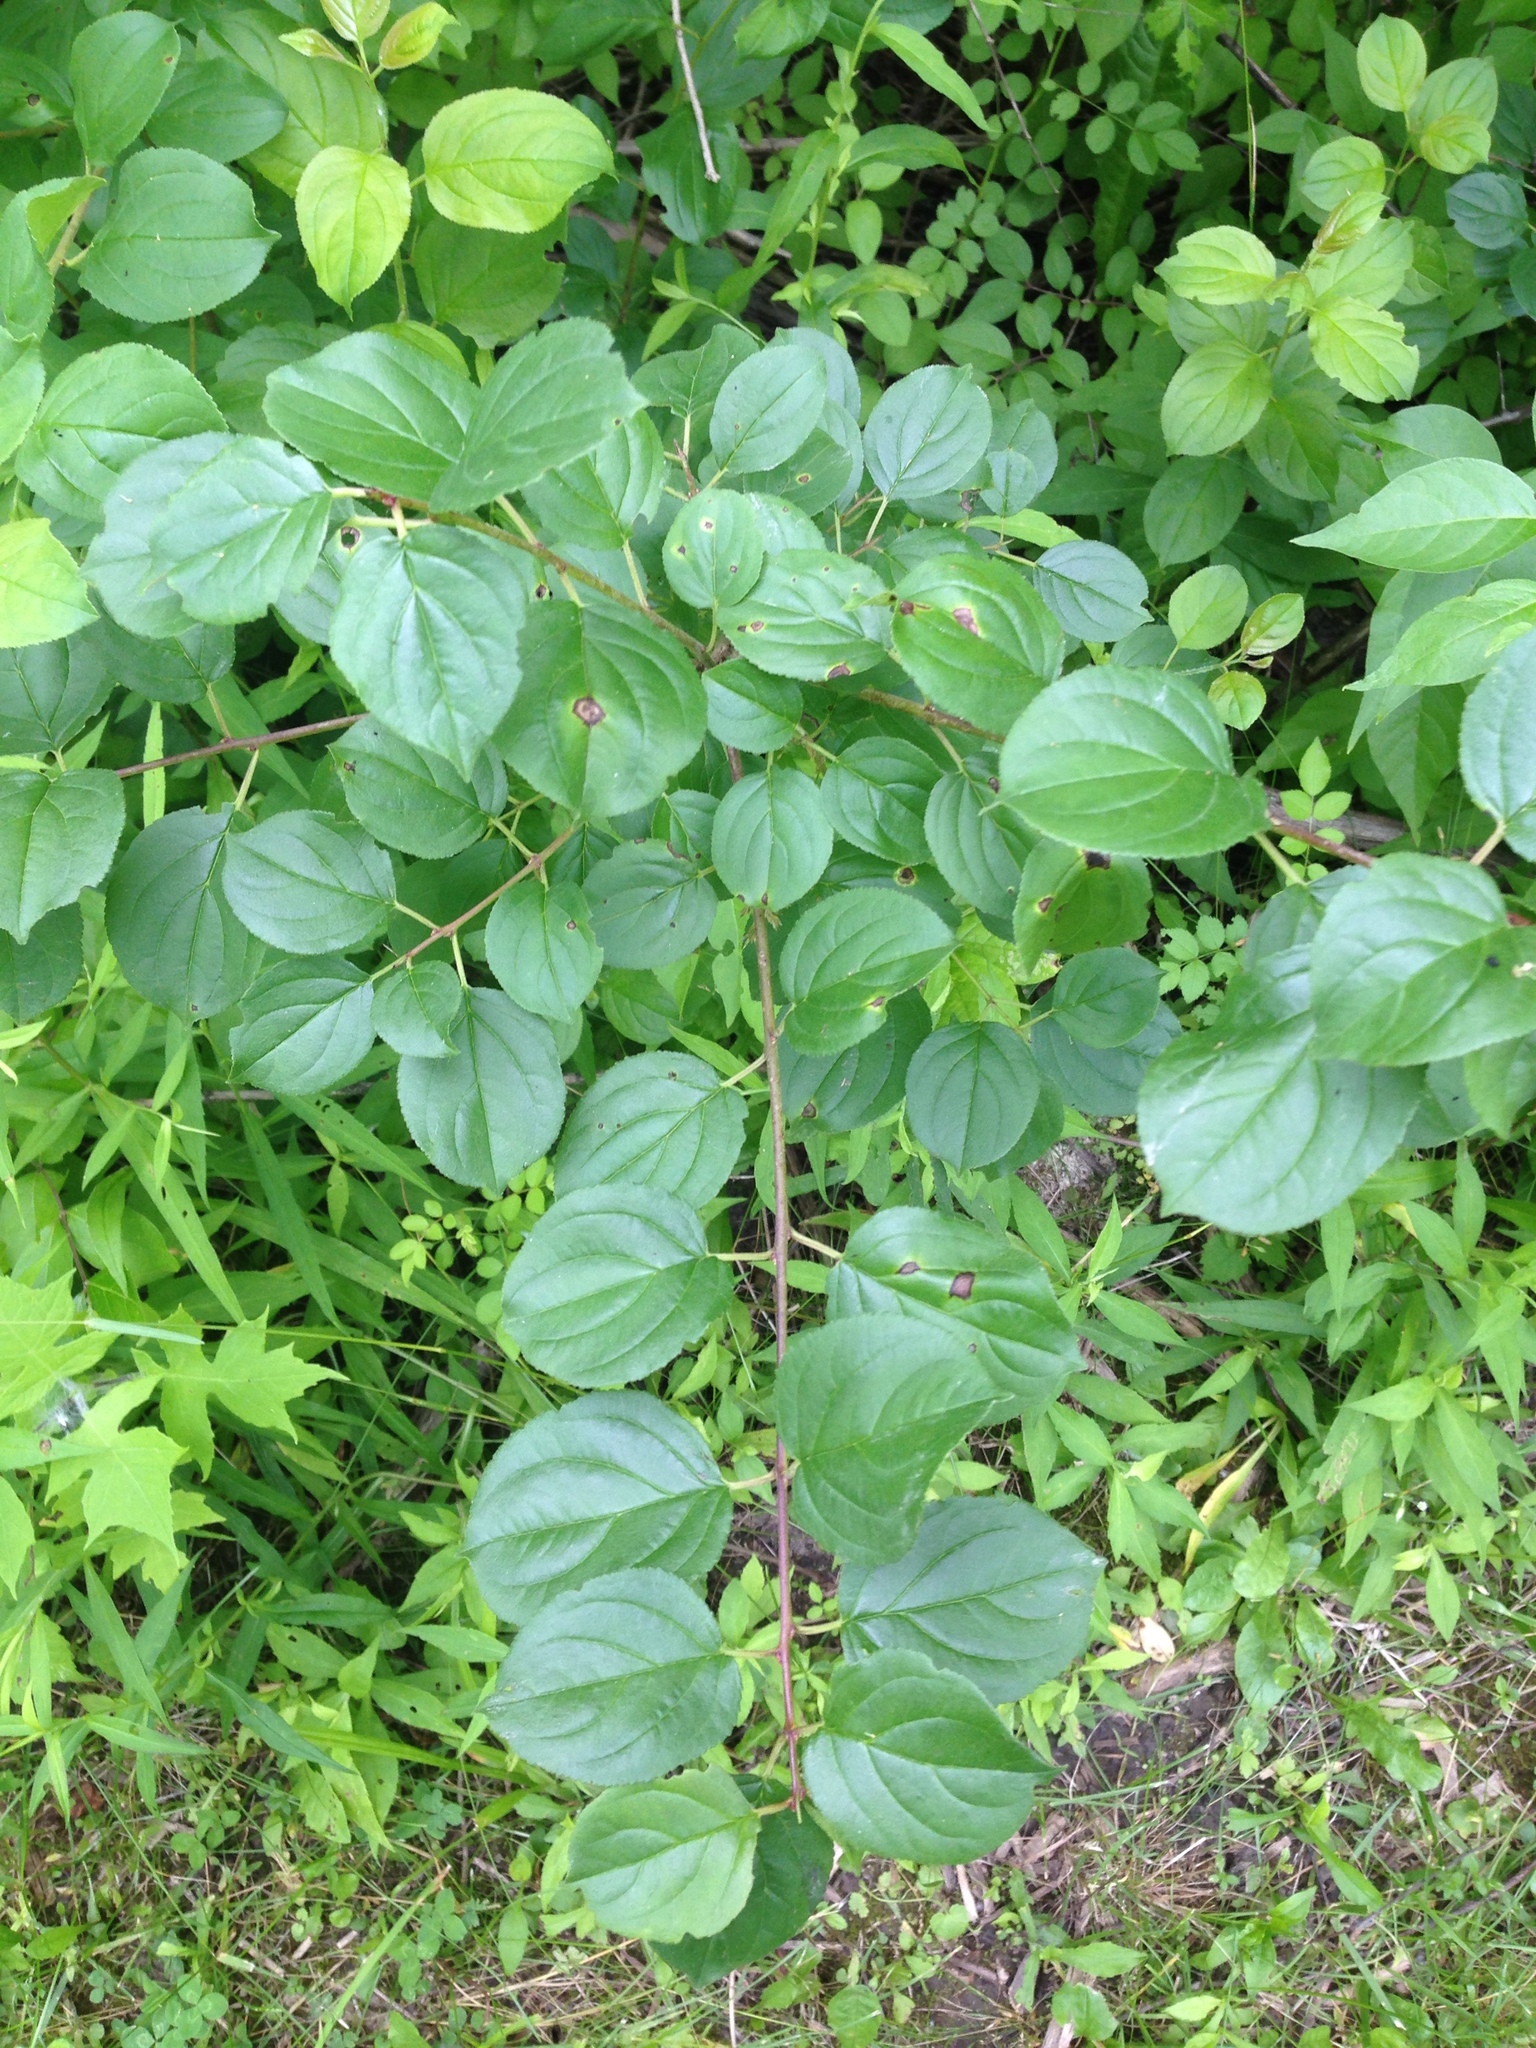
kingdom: Plantae
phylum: Tracheophyta
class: Magnoliopsida
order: Rosales
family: Rhamnaceae
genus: Rhamnus
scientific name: Rhamnus cathartica
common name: Common buckthorn
